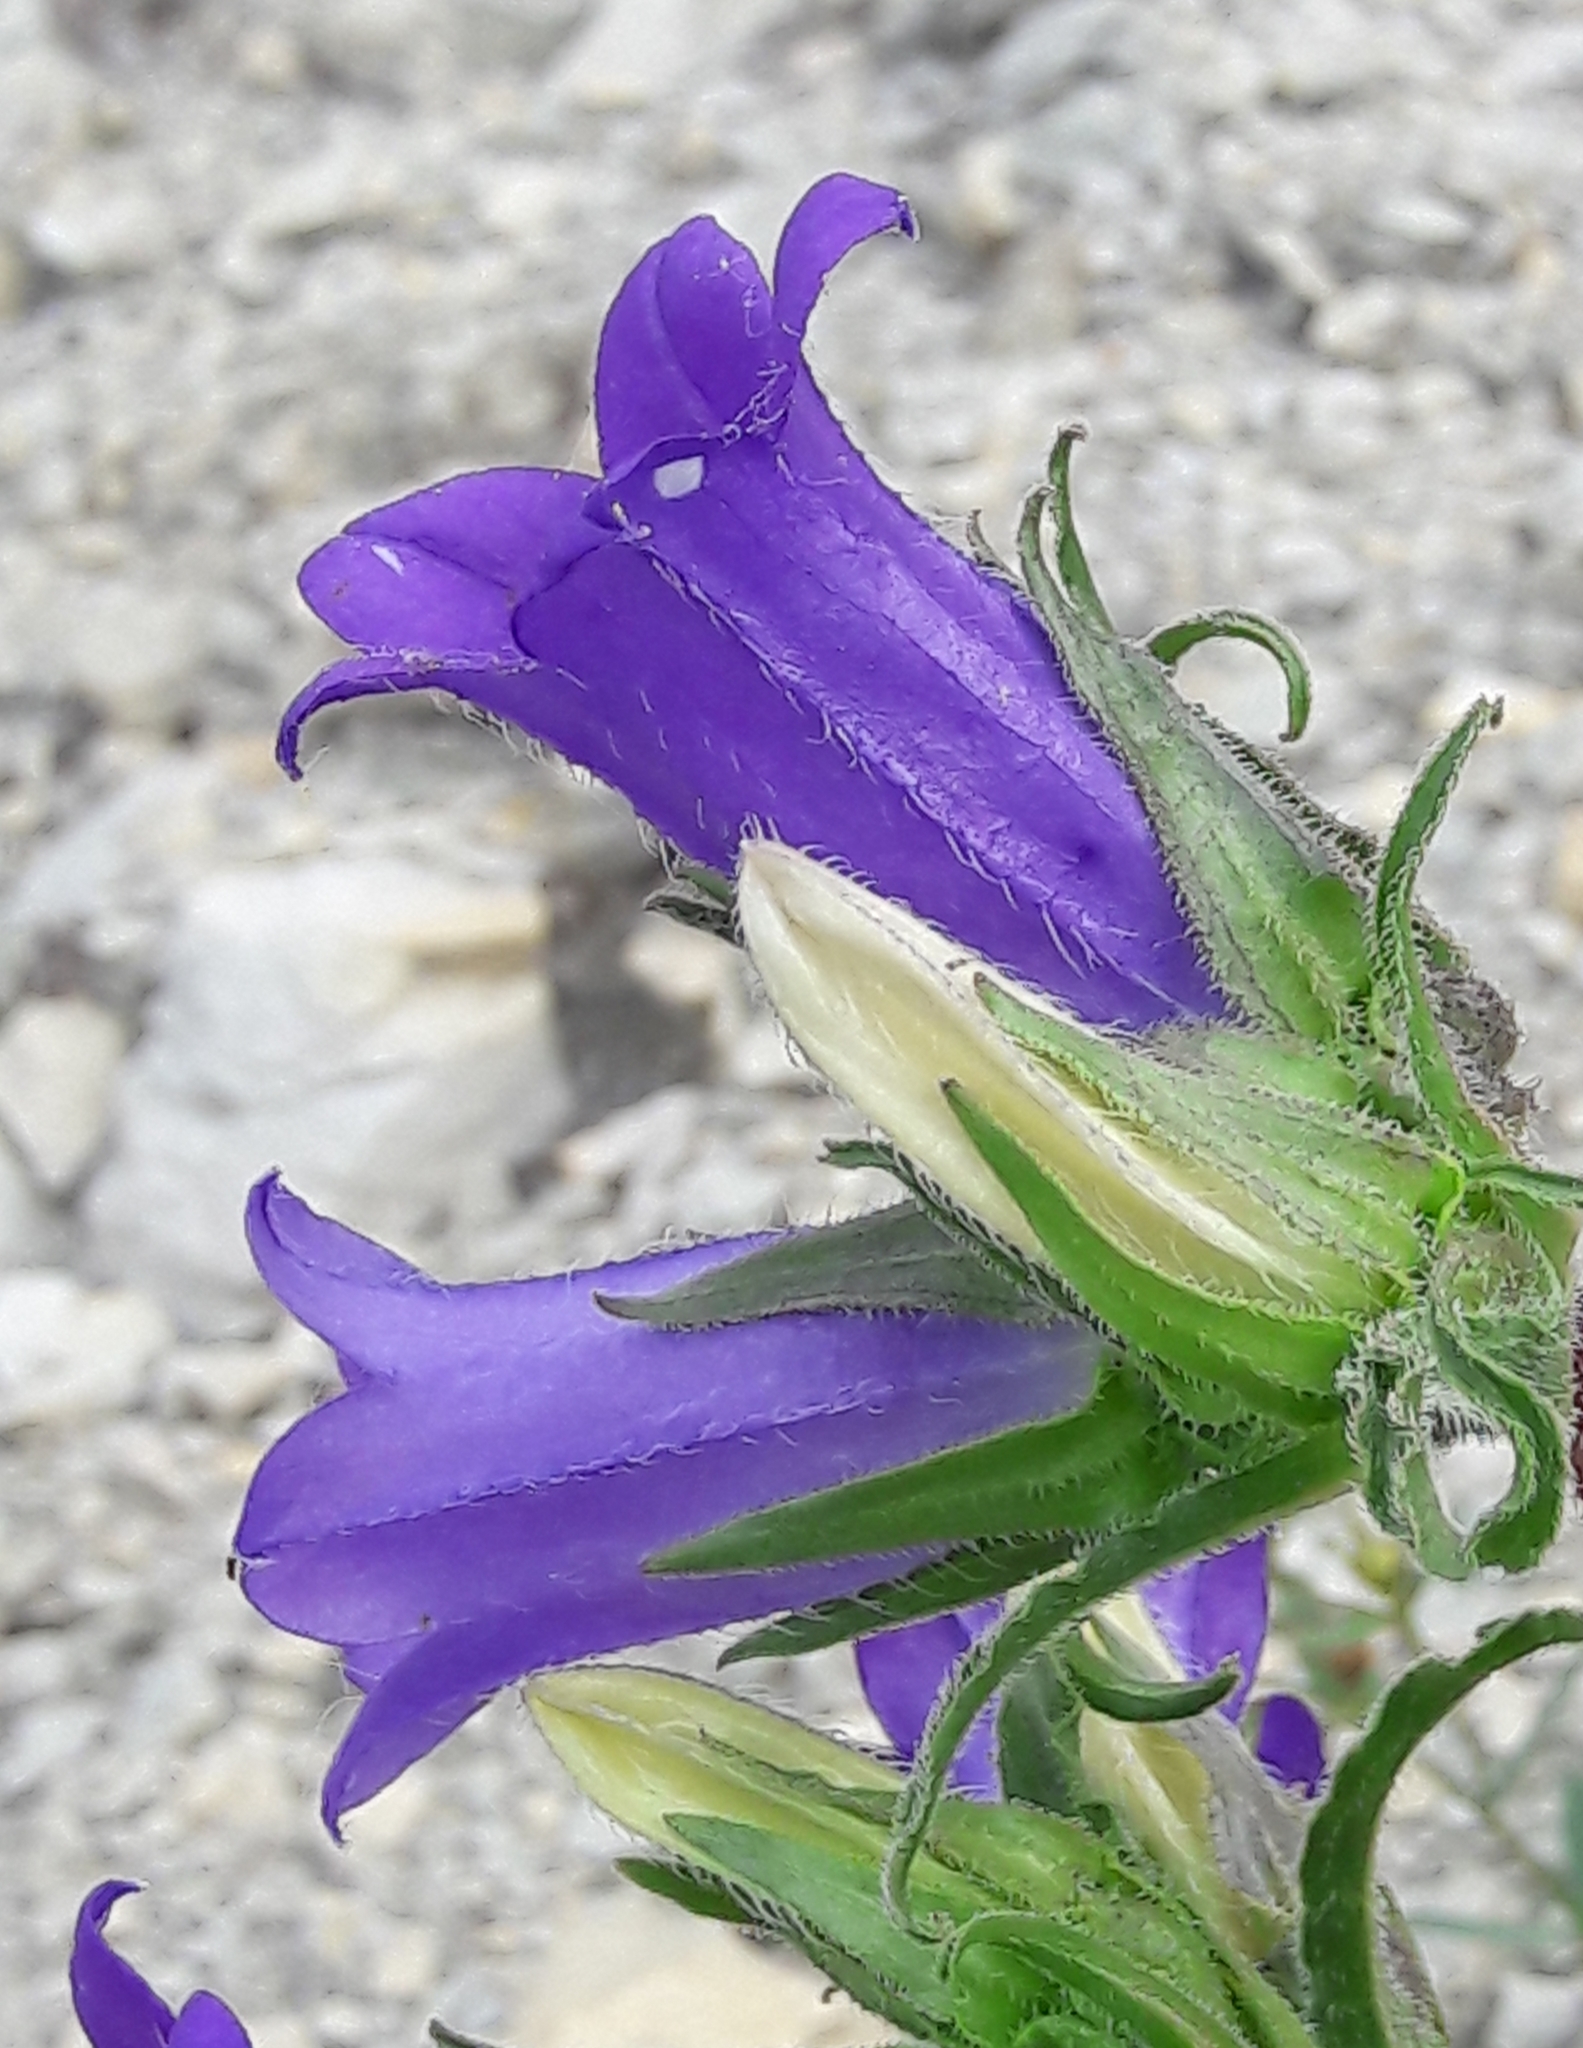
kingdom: Plantae
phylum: Tracheophyta
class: Magnoliopsida
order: Asterales
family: Campanulaceae
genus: Campanula
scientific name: Campanula speciosa
